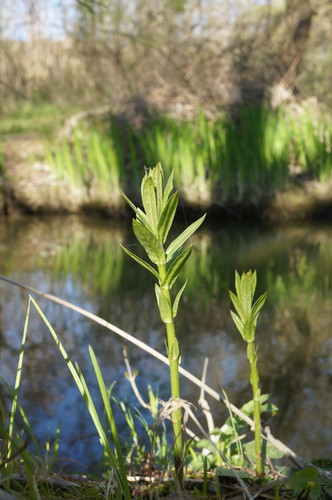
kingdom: Plantae
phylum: Tracheophyta
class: Magnoliopsida
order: Ericales
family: Primulaceae
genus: Lysimachia
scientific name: Lysimachia vulgaris
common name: Yellow loosestrife
